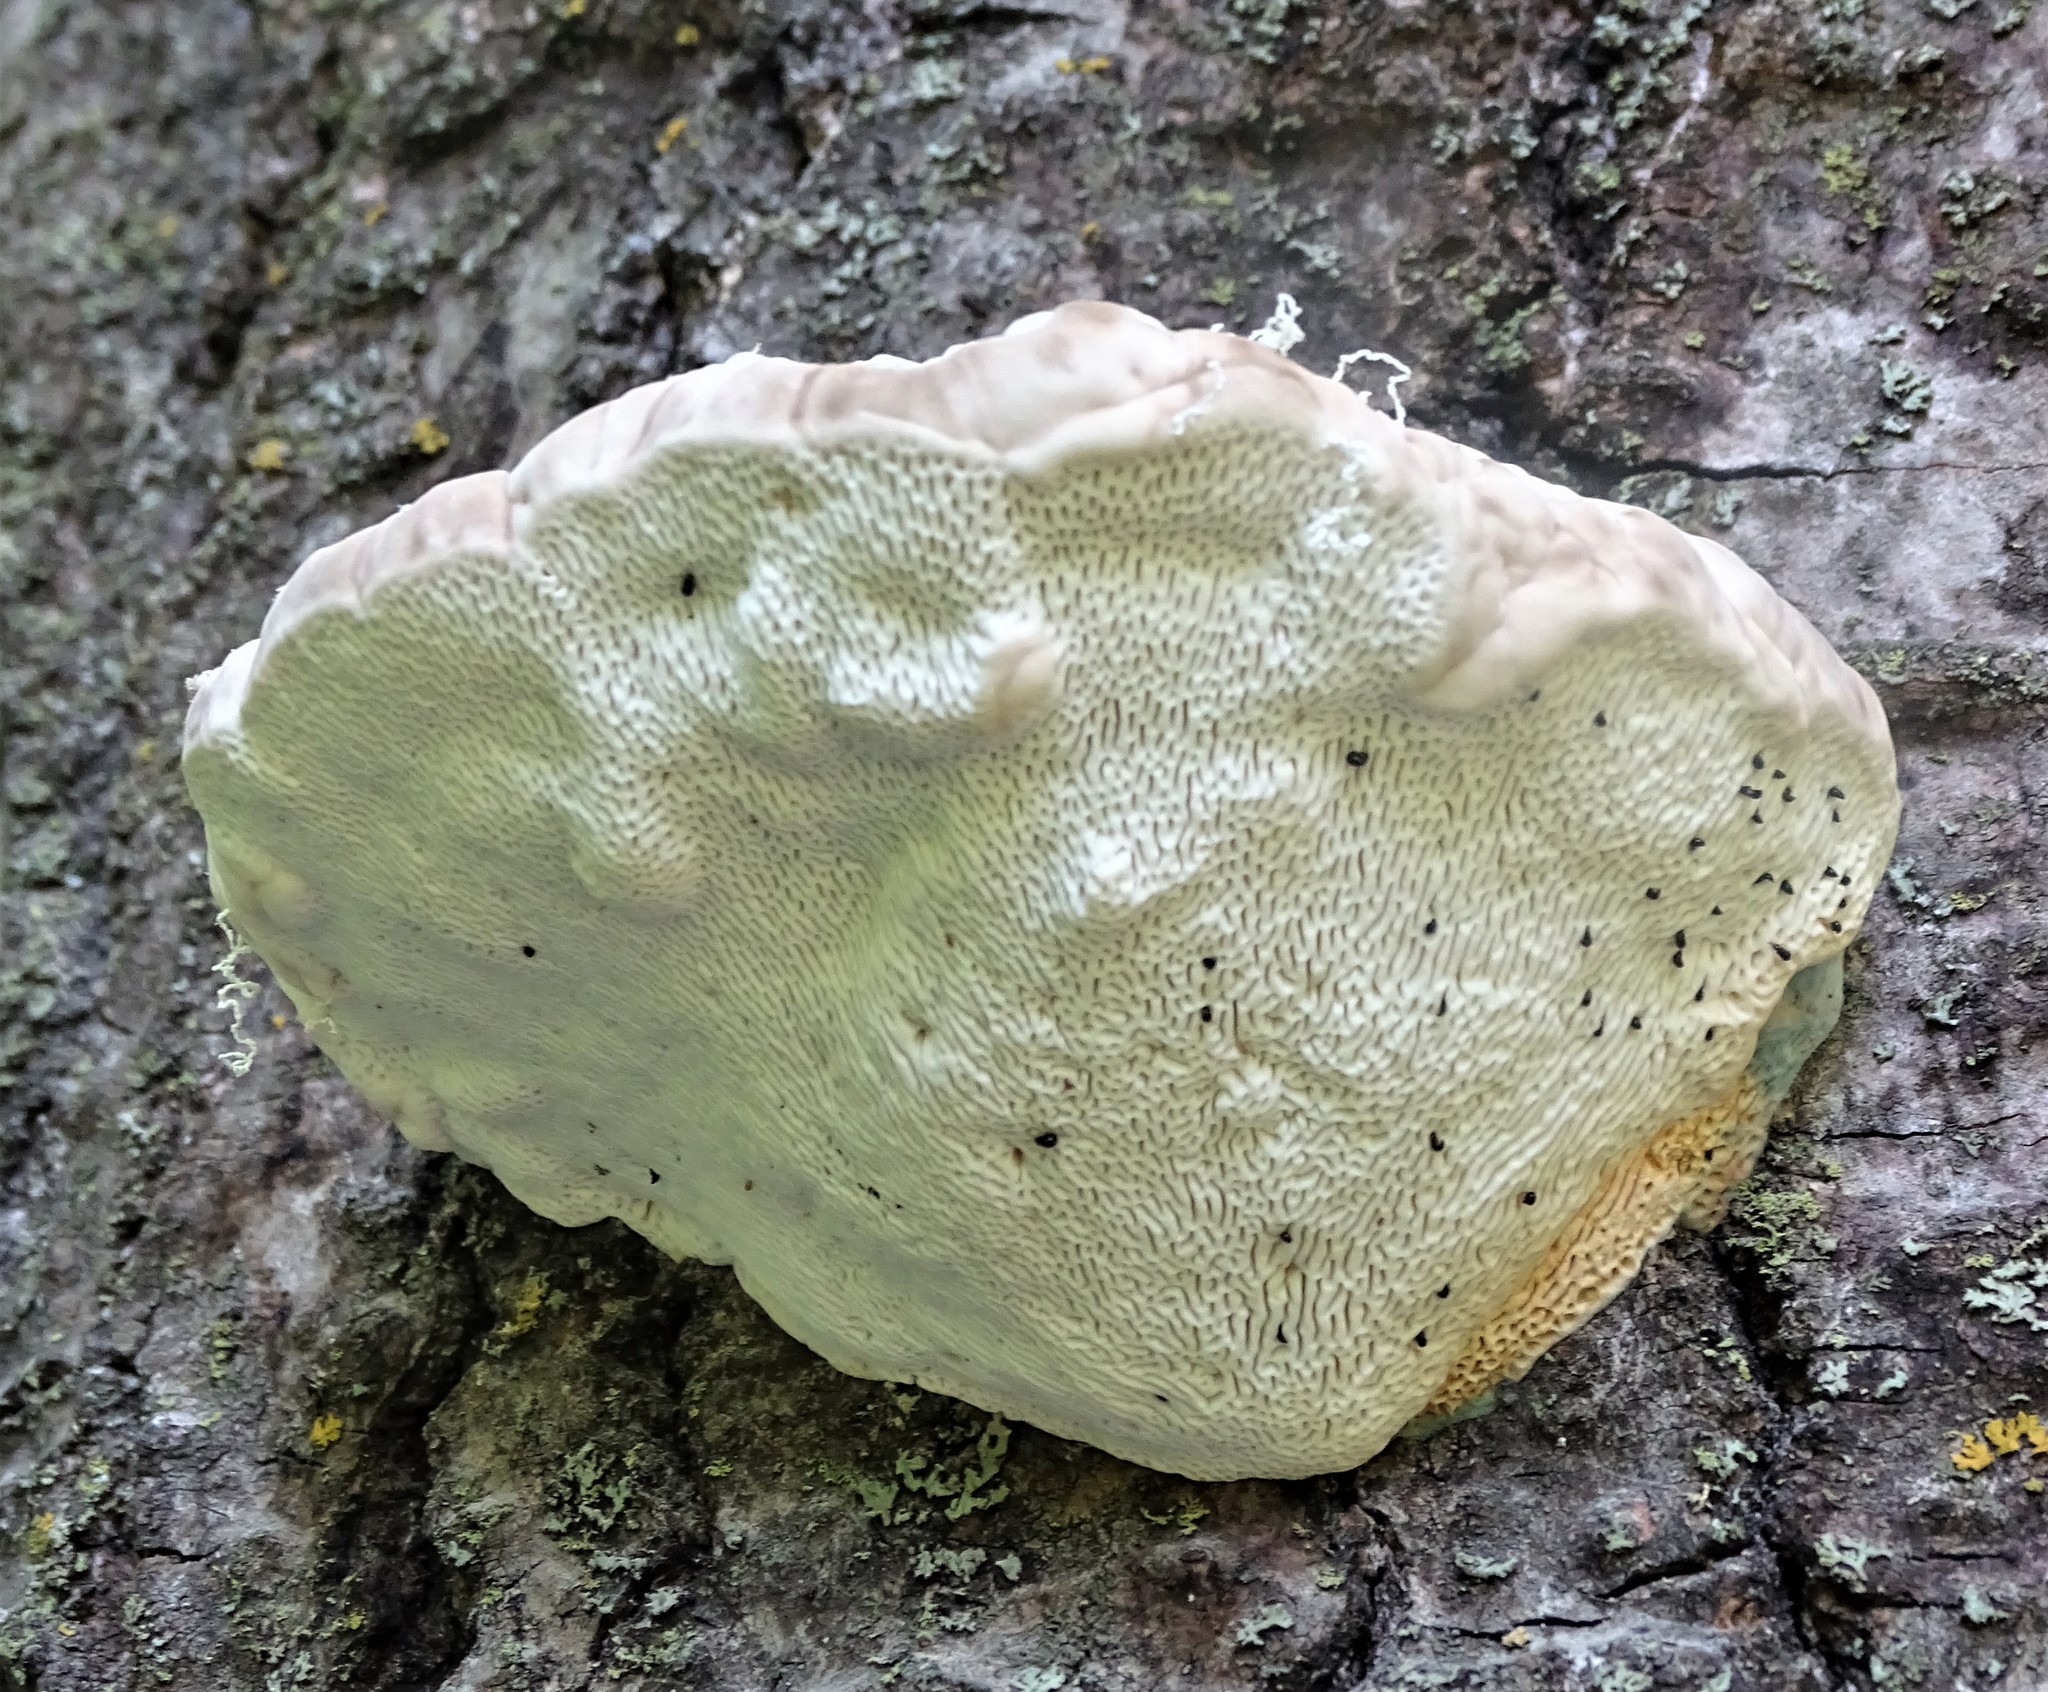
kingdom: Fungi
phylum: Basidiomycota
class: Agaricomycetes
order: Polyporales
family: Polyporaceae
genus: Trametes
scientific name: Trametes gibbosa
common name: Lumpy bracket
